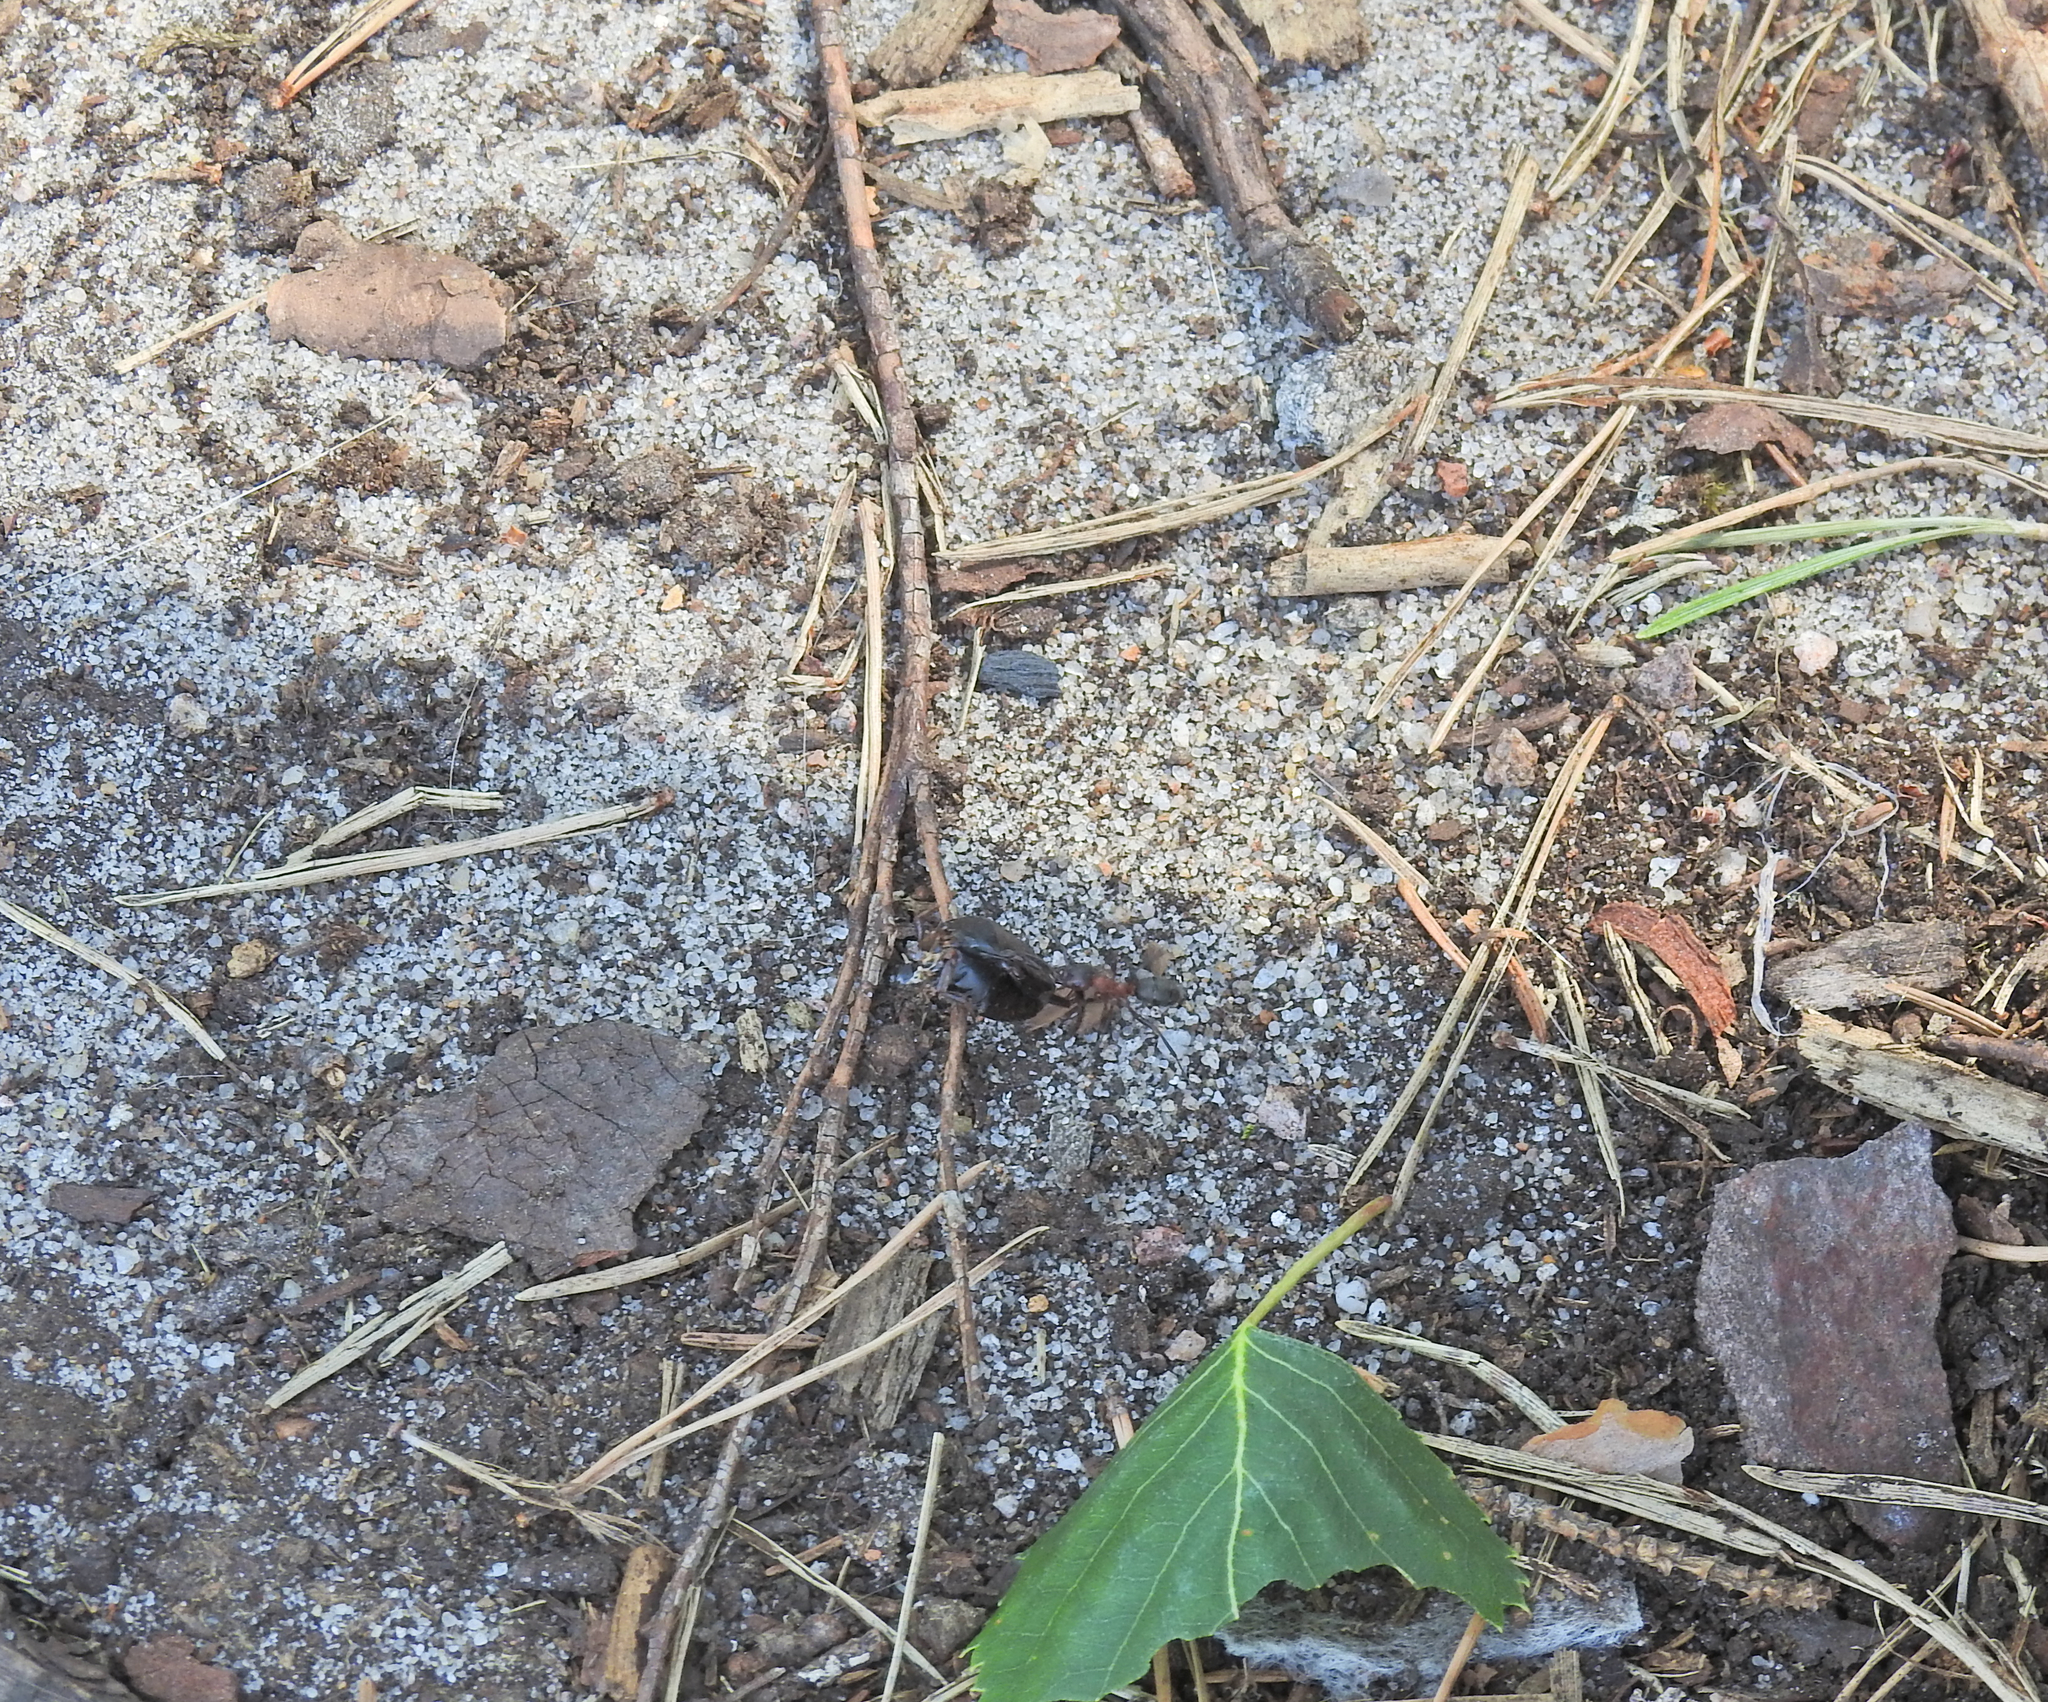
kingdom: Animalia
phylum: Arthropoda
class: Insecta
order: Hymenoptera
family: Formicidae
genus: Formica
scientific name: Formica
